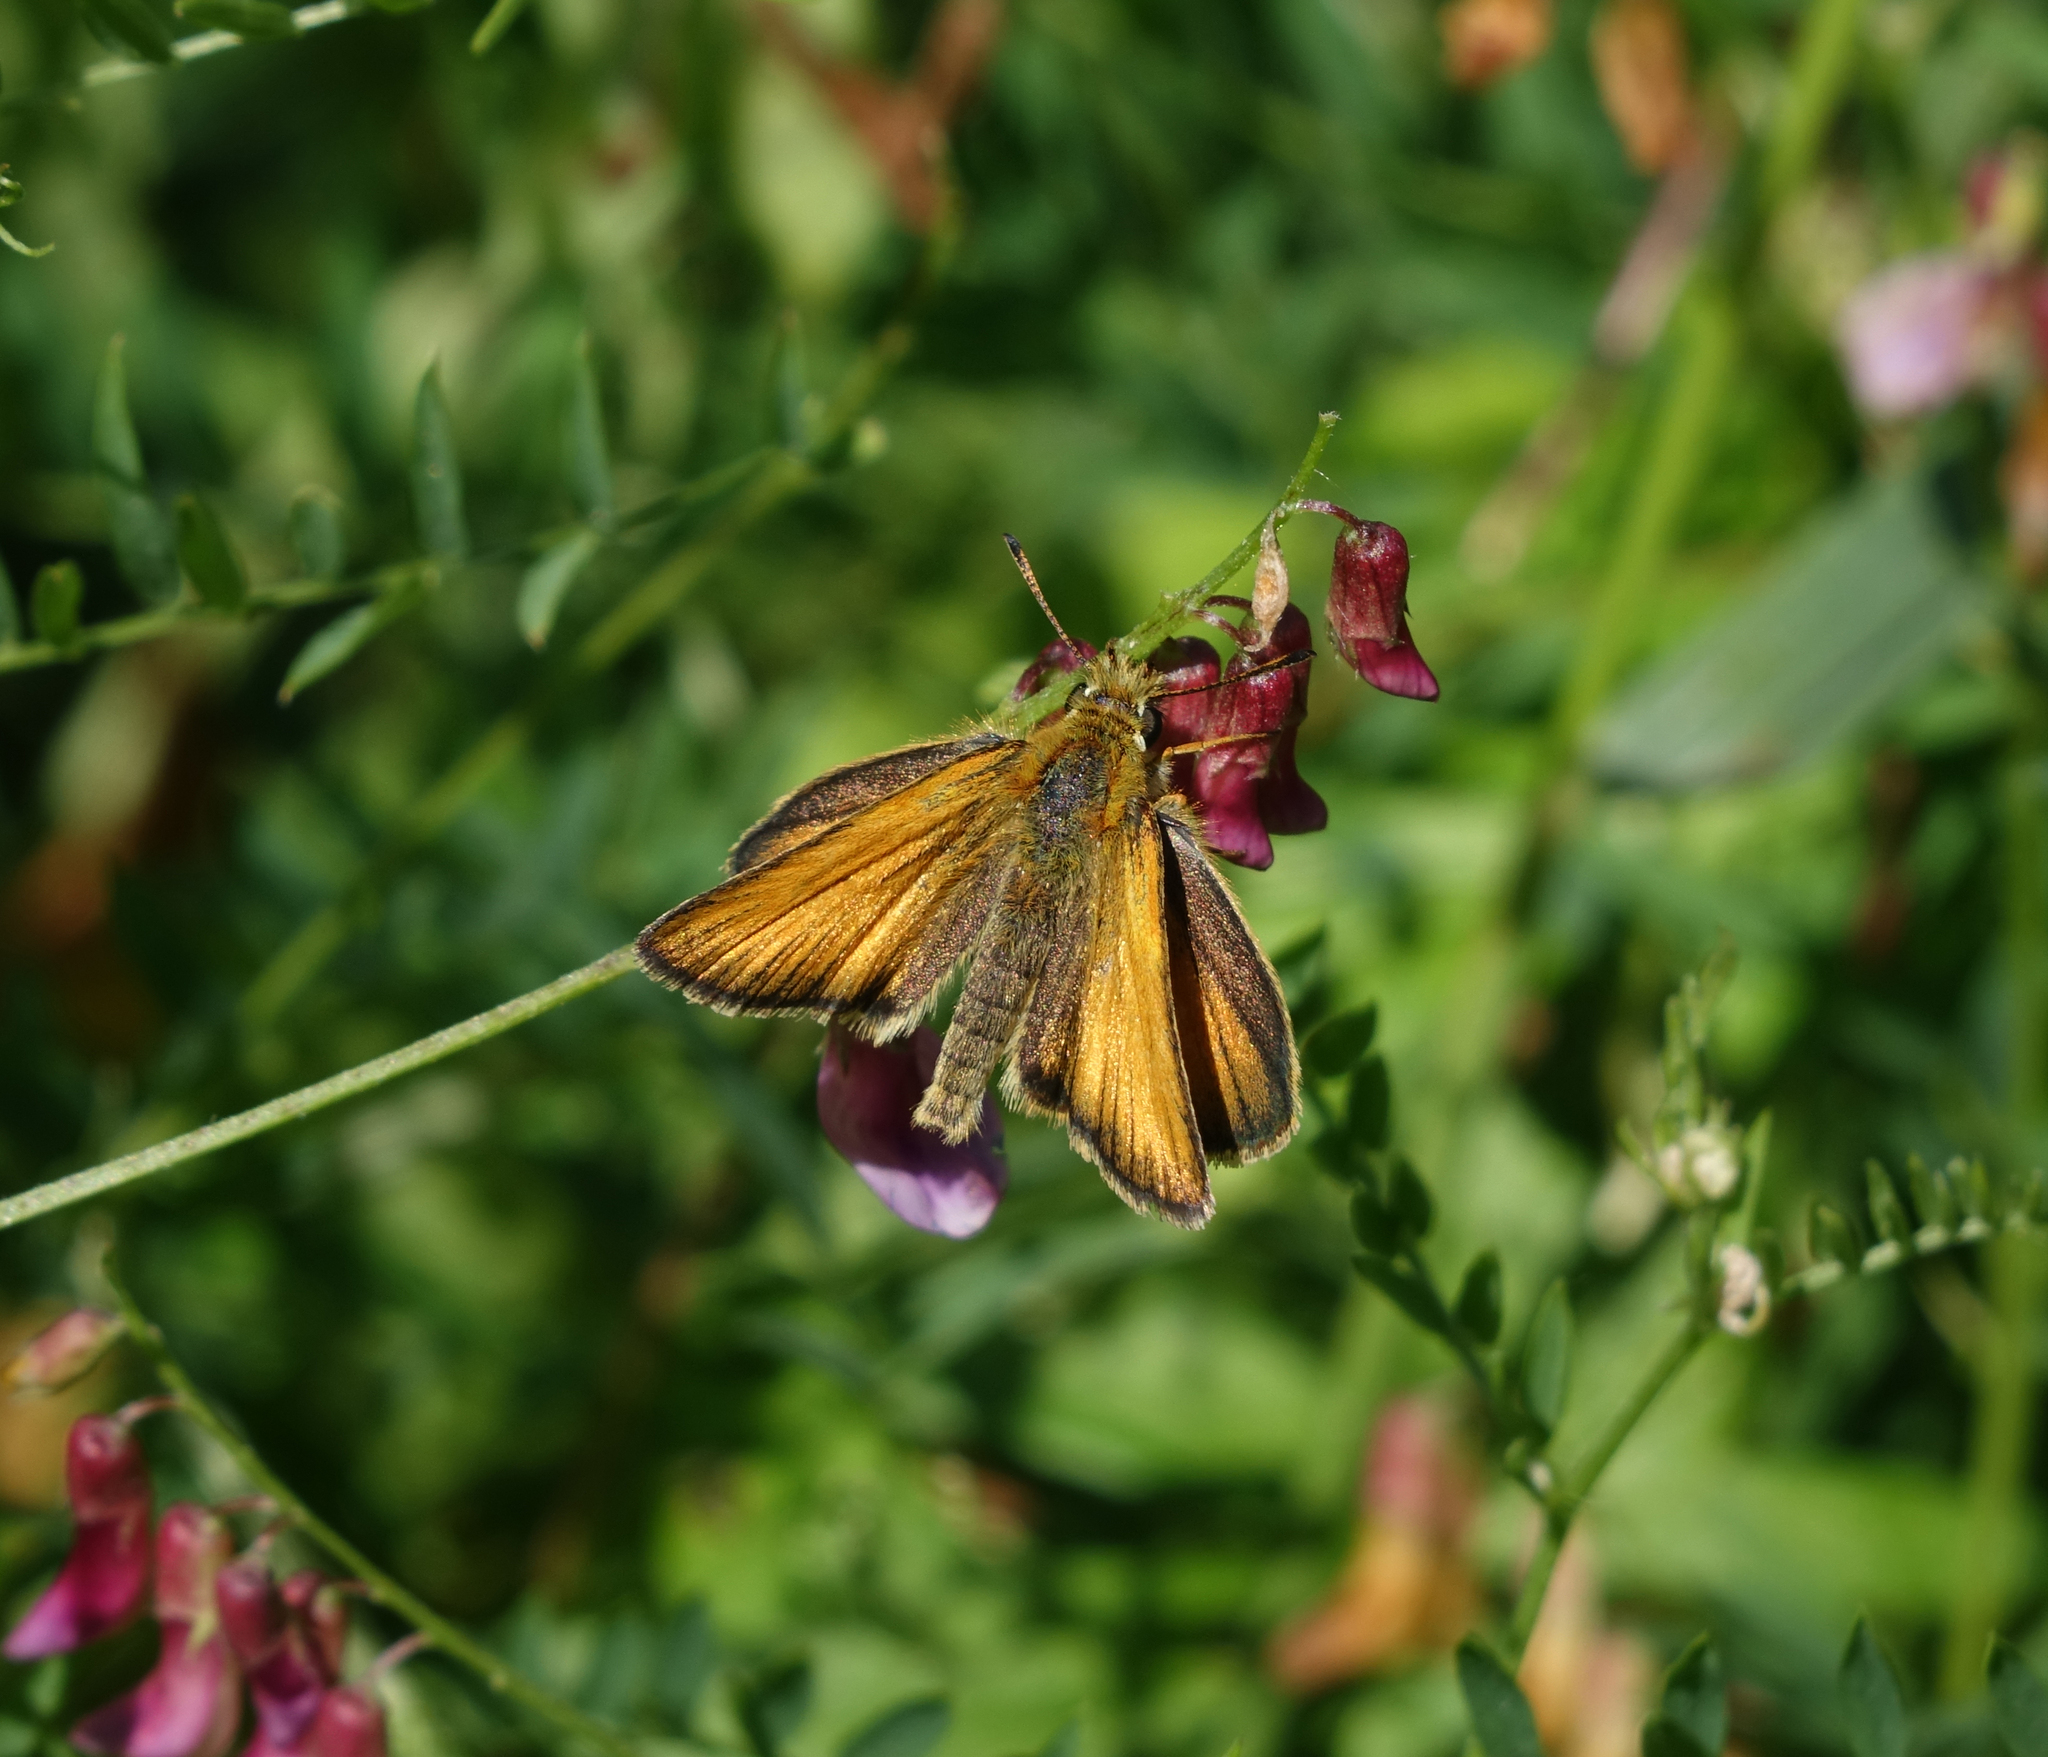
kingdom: Animalia
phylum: Arthropoda
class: Insecta
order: Lepidoptera
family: Hesperiidae
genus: Thymelicus
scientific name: Thymelicus lineola
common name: Essex skipper
